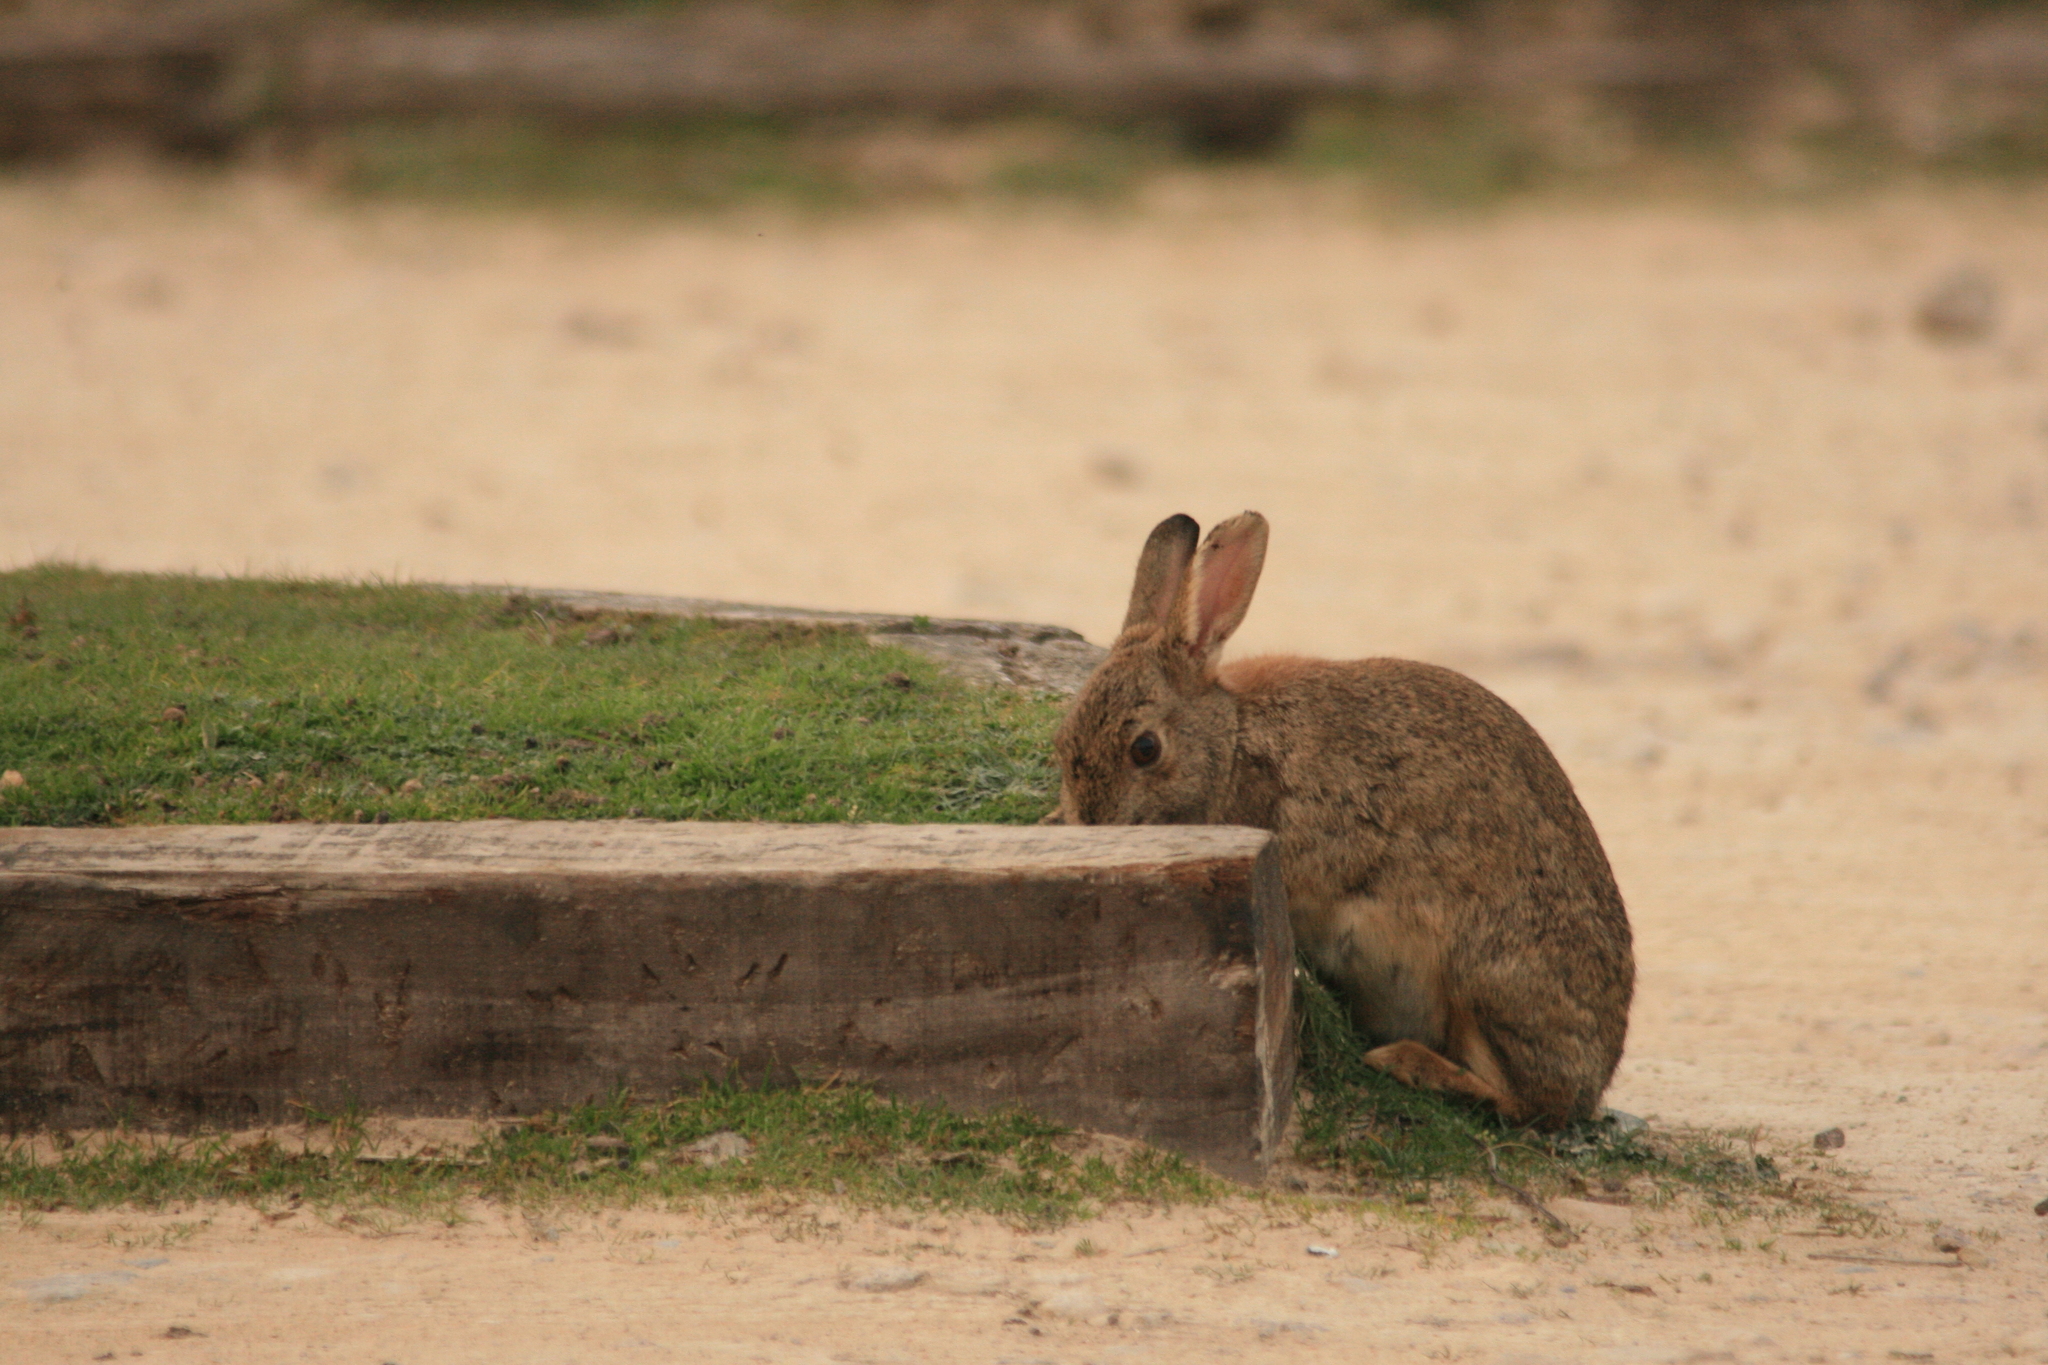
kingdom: Animalia
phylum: Chordata
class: Mammalia
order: Lagomorpha
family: Leporidae
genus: Oryctolagus
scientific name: Oryctolagus cuniculus
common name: European rabbit
